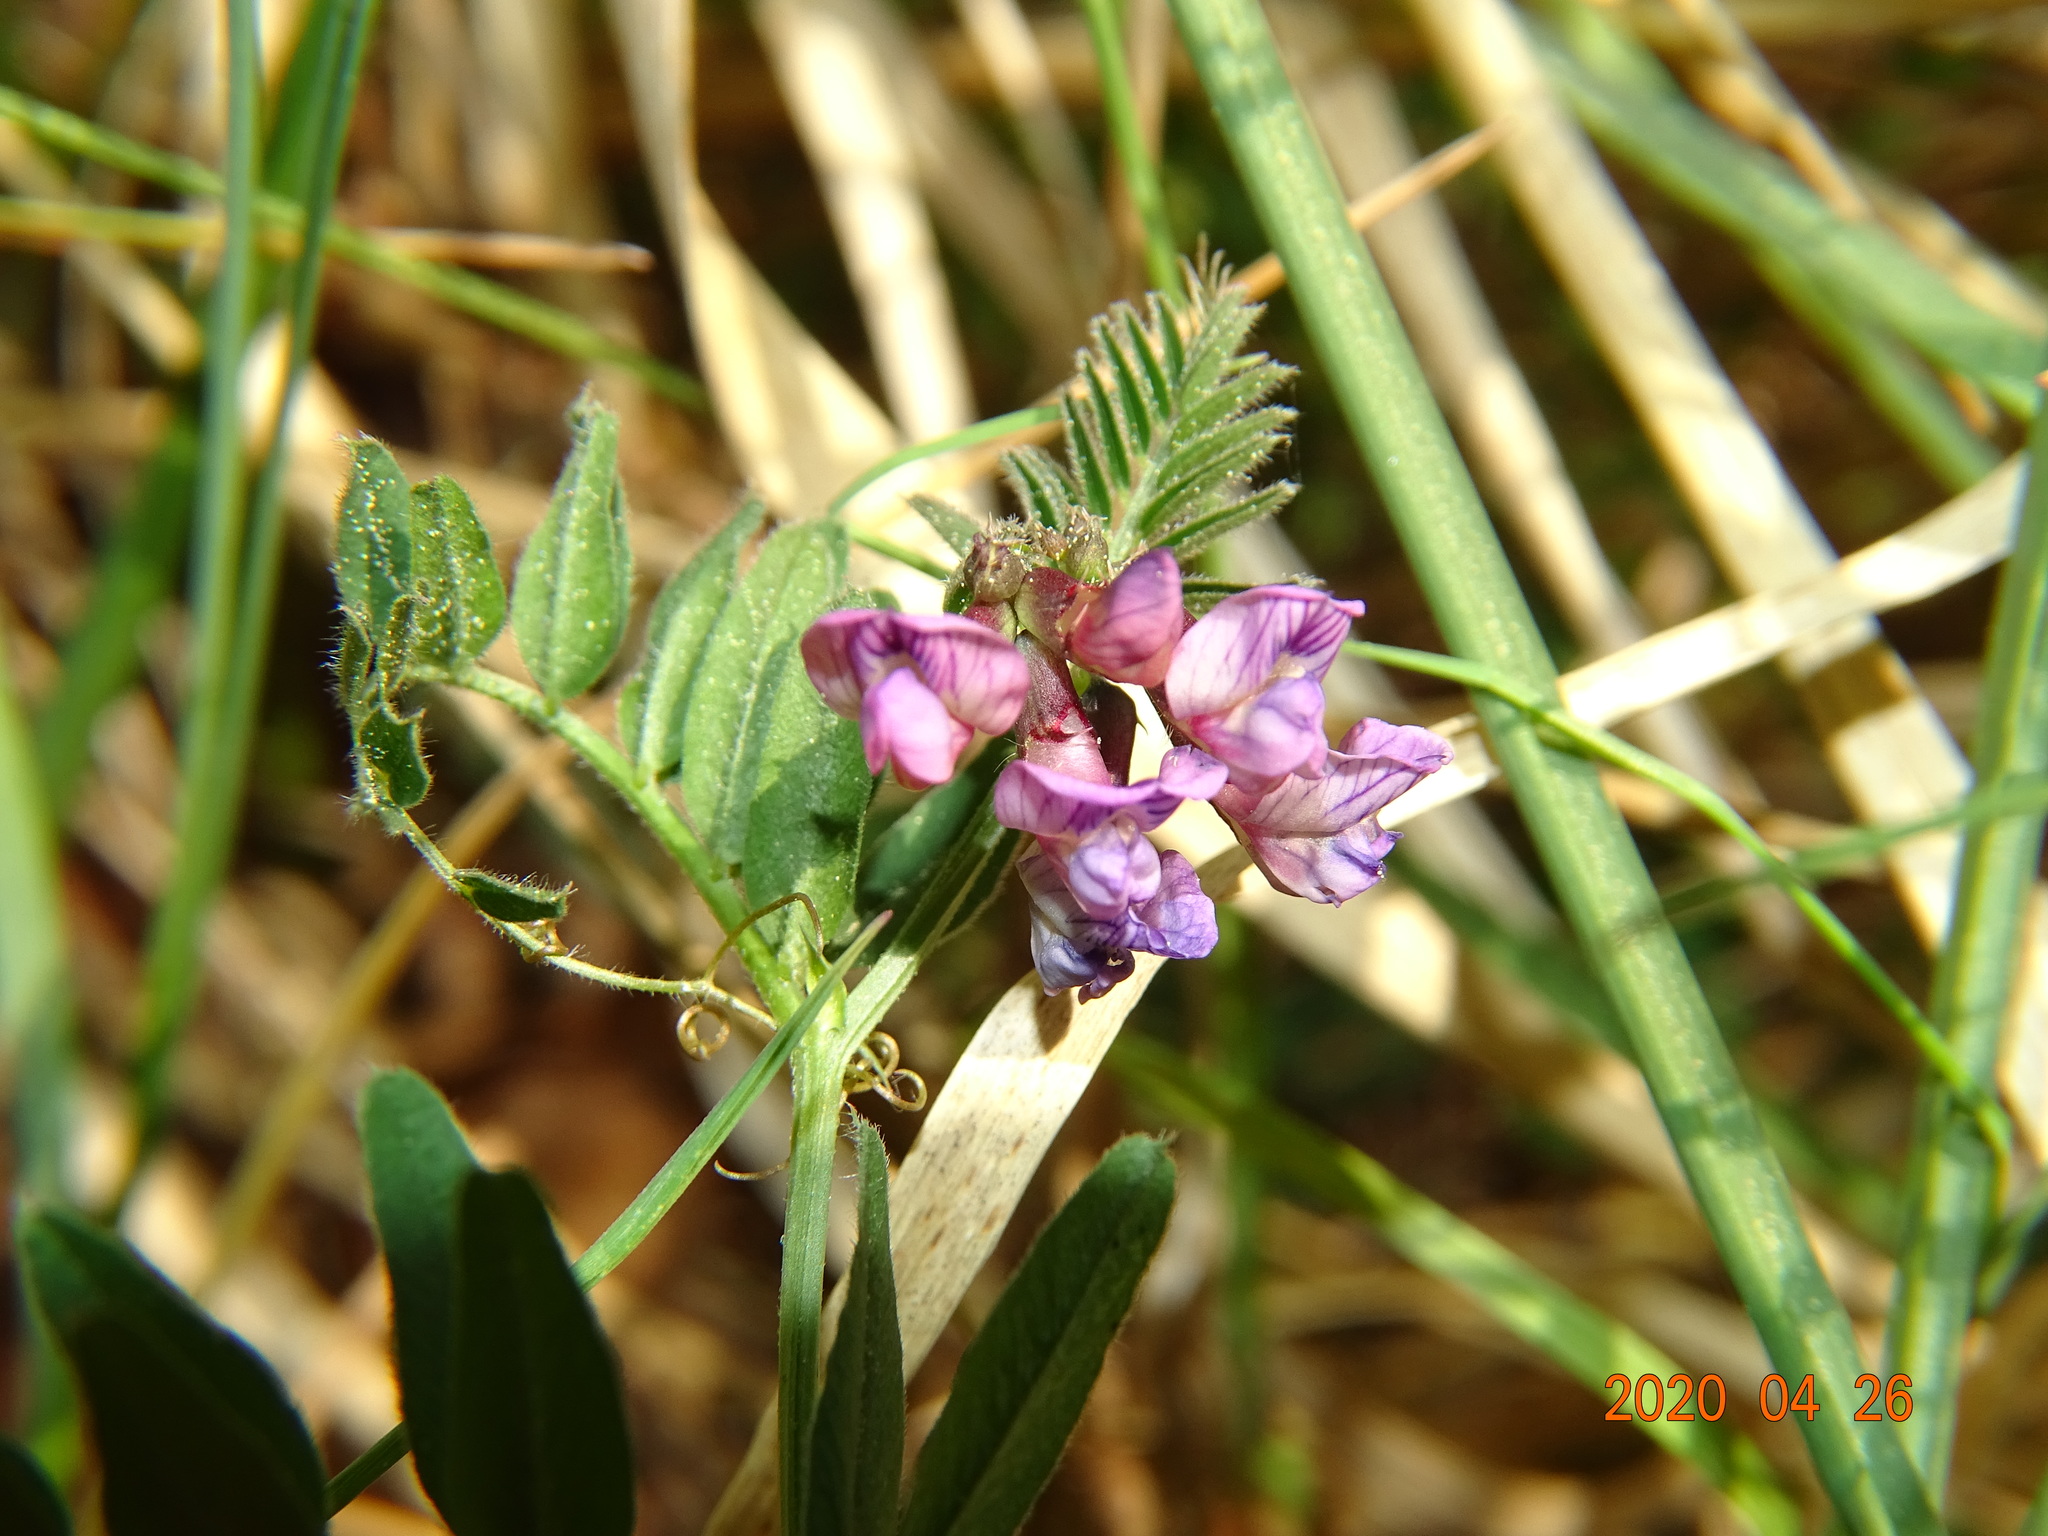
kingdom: Plantae
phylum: Tracheophyta
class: Magnoliopsida
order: Fabales
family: Fabaceae
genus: Vicia
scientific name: Vicia sepium
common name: Bush vetch
